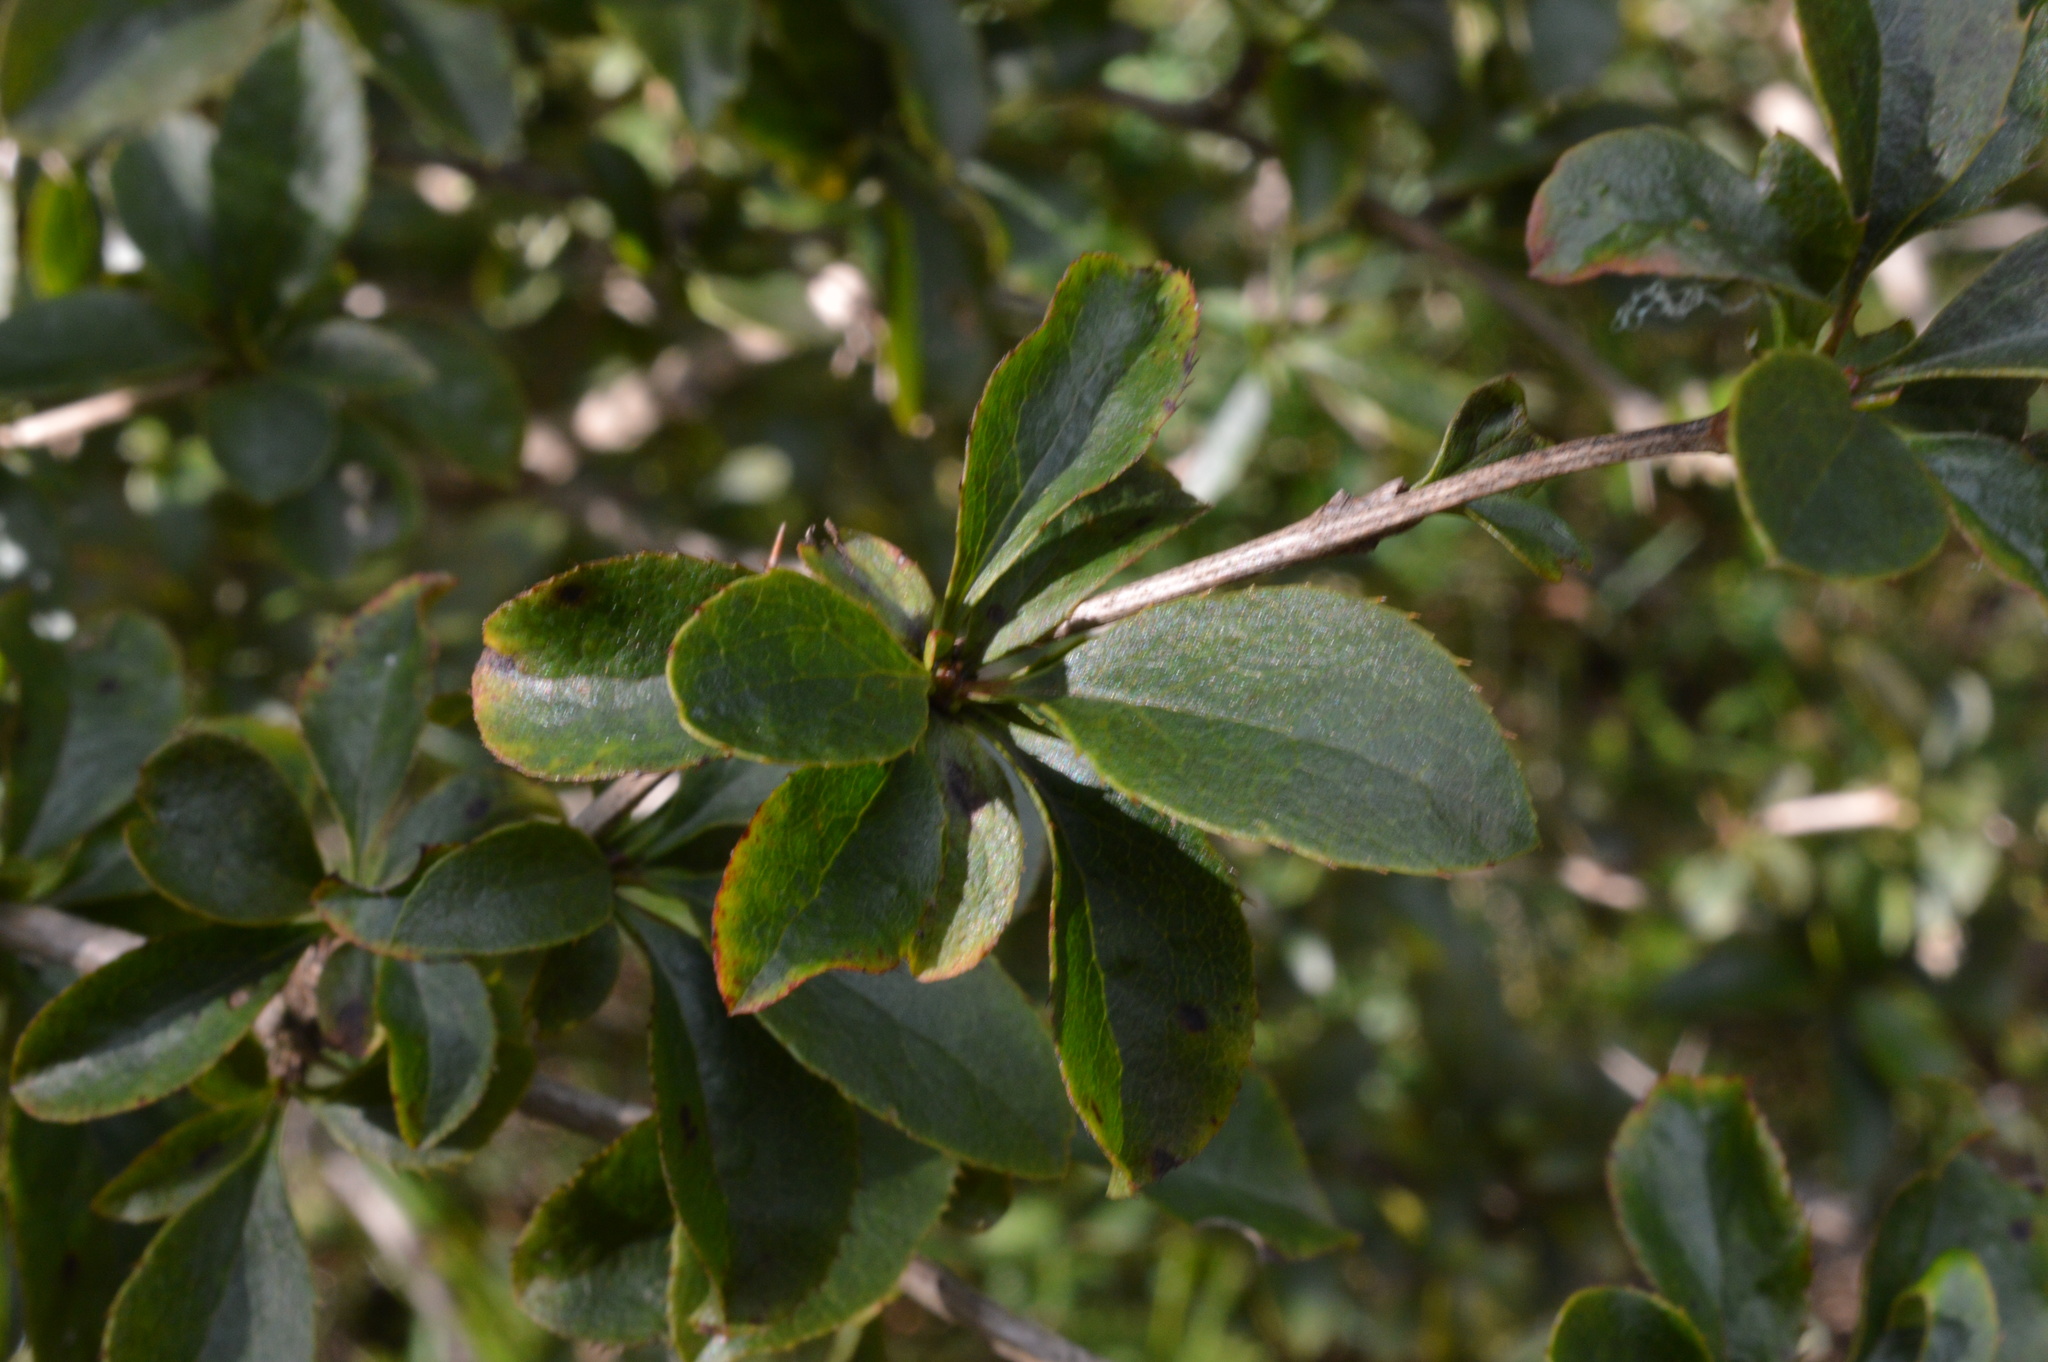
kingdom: Plantae
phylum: Tracheophyta
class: Magnoliopsida
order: Ranunculales
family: Berberidaceae
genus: Berberis
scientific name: Berberis vulgaris
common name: Barberry
